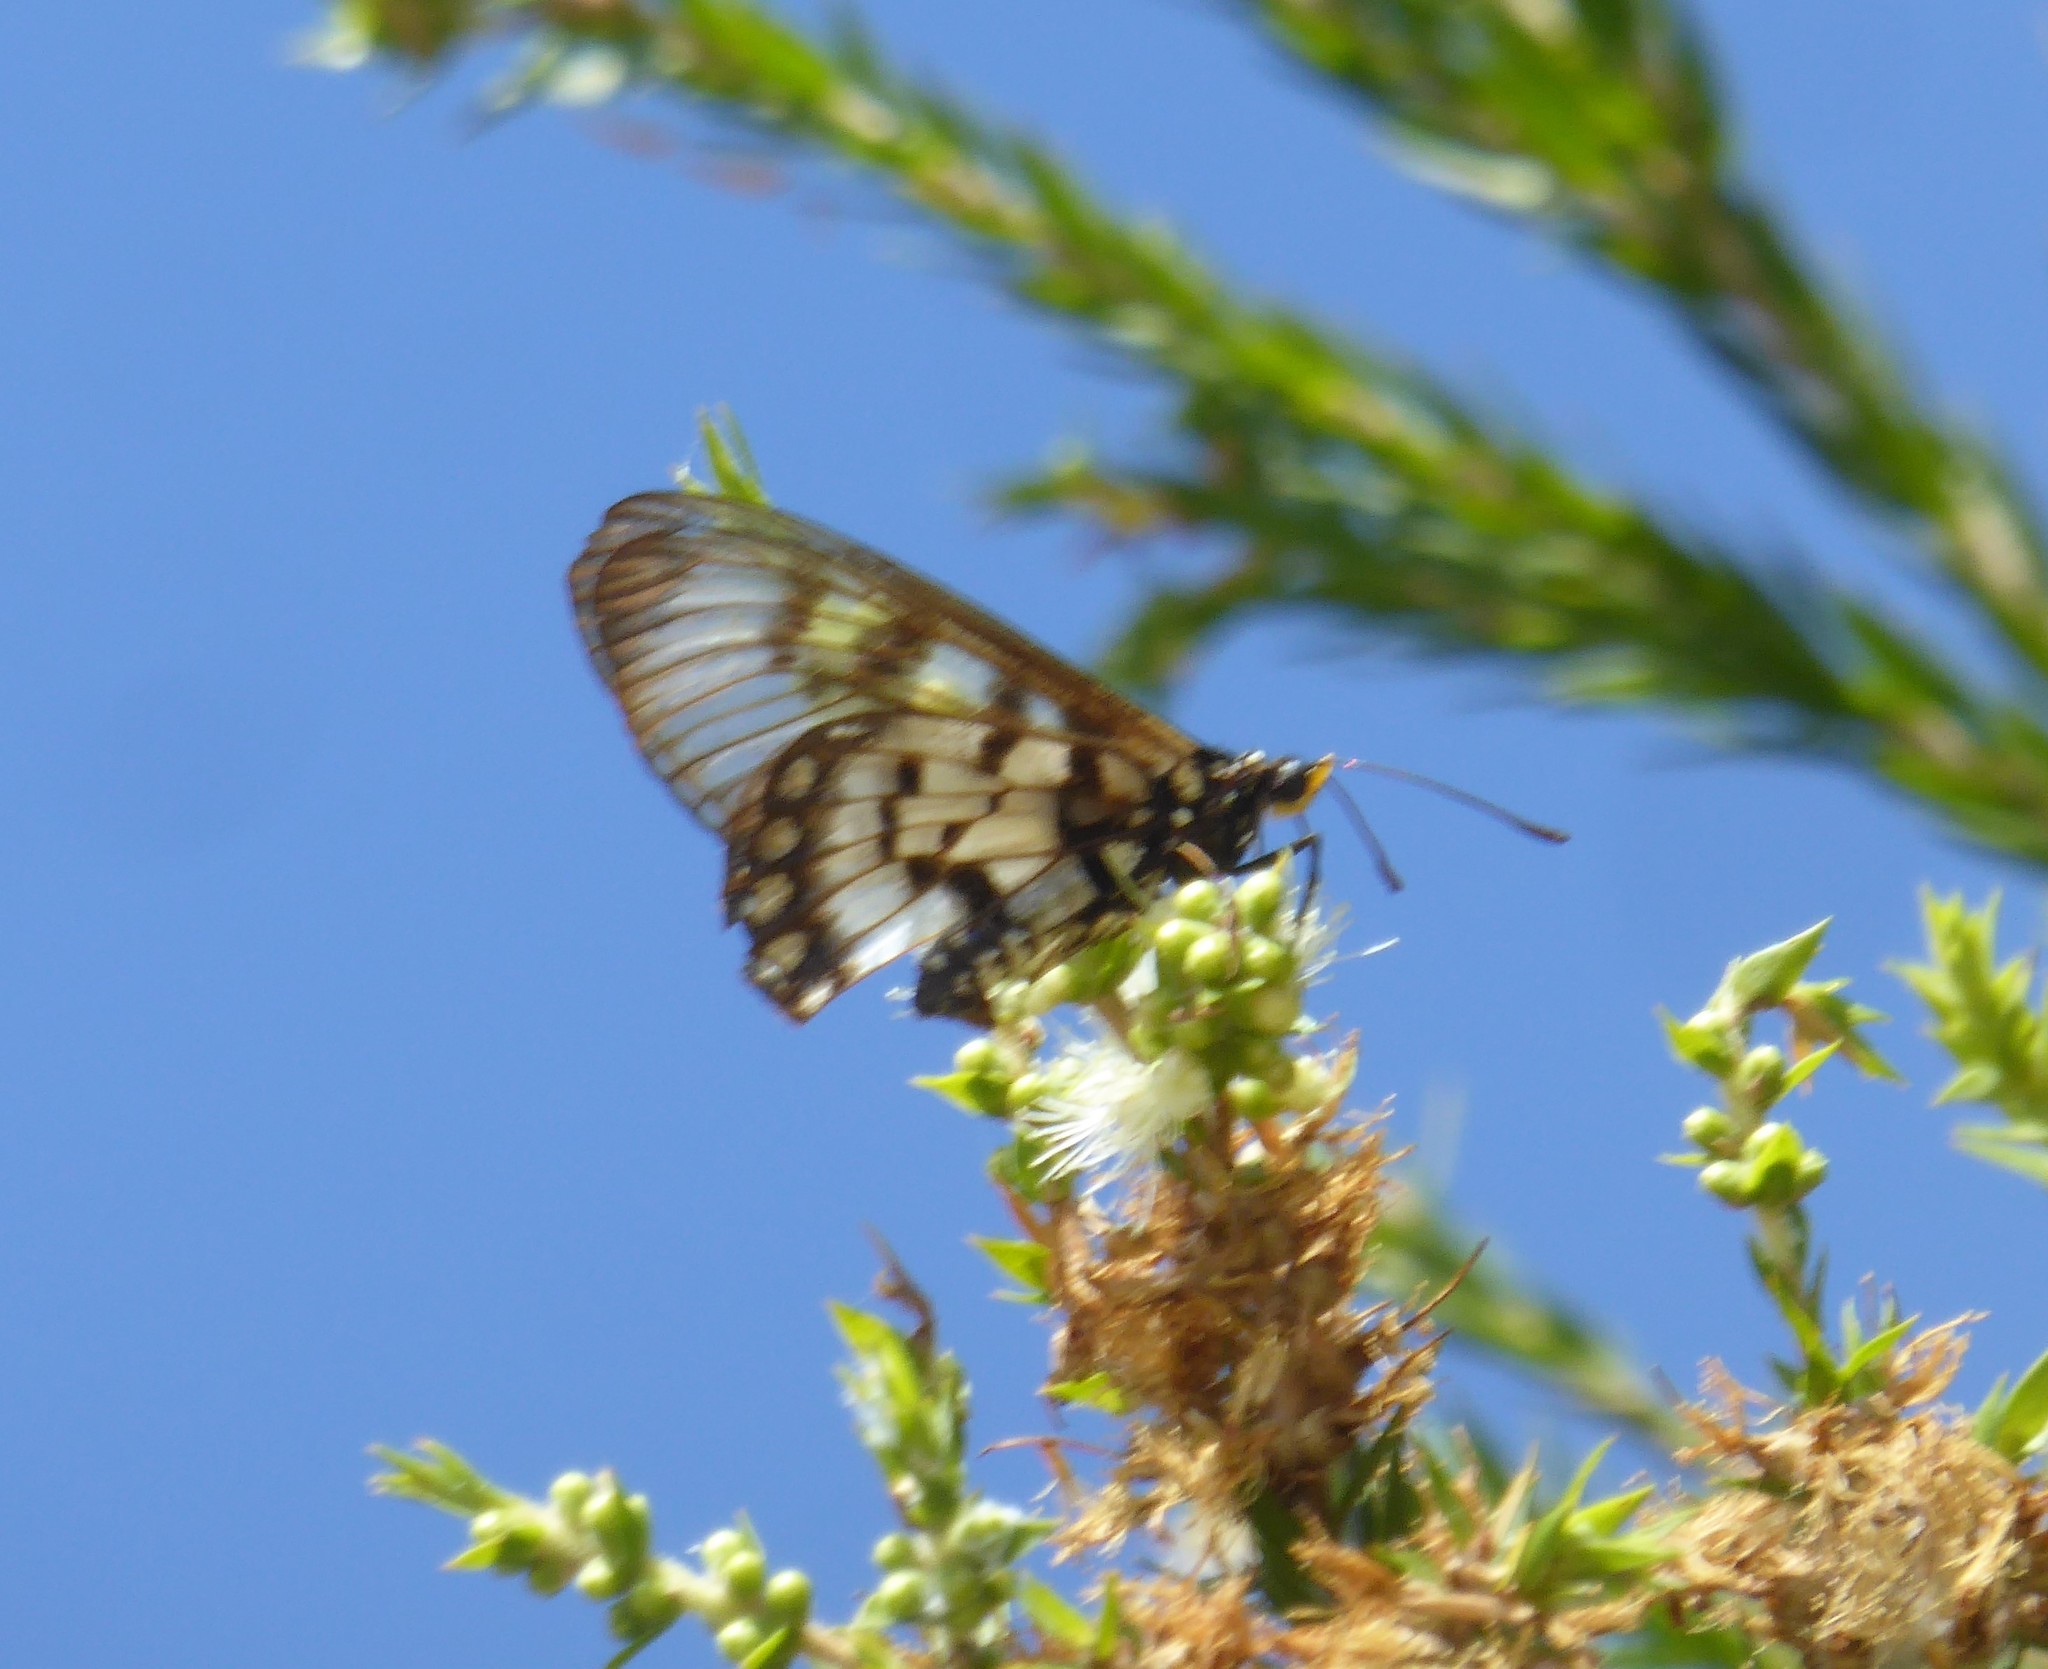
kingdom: Animalia
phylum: Arthropoda
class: Insecta
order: Lepidoptera
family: Nymphalidae
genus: Acraea
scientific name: Acraea andromacha
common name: Glasswing
